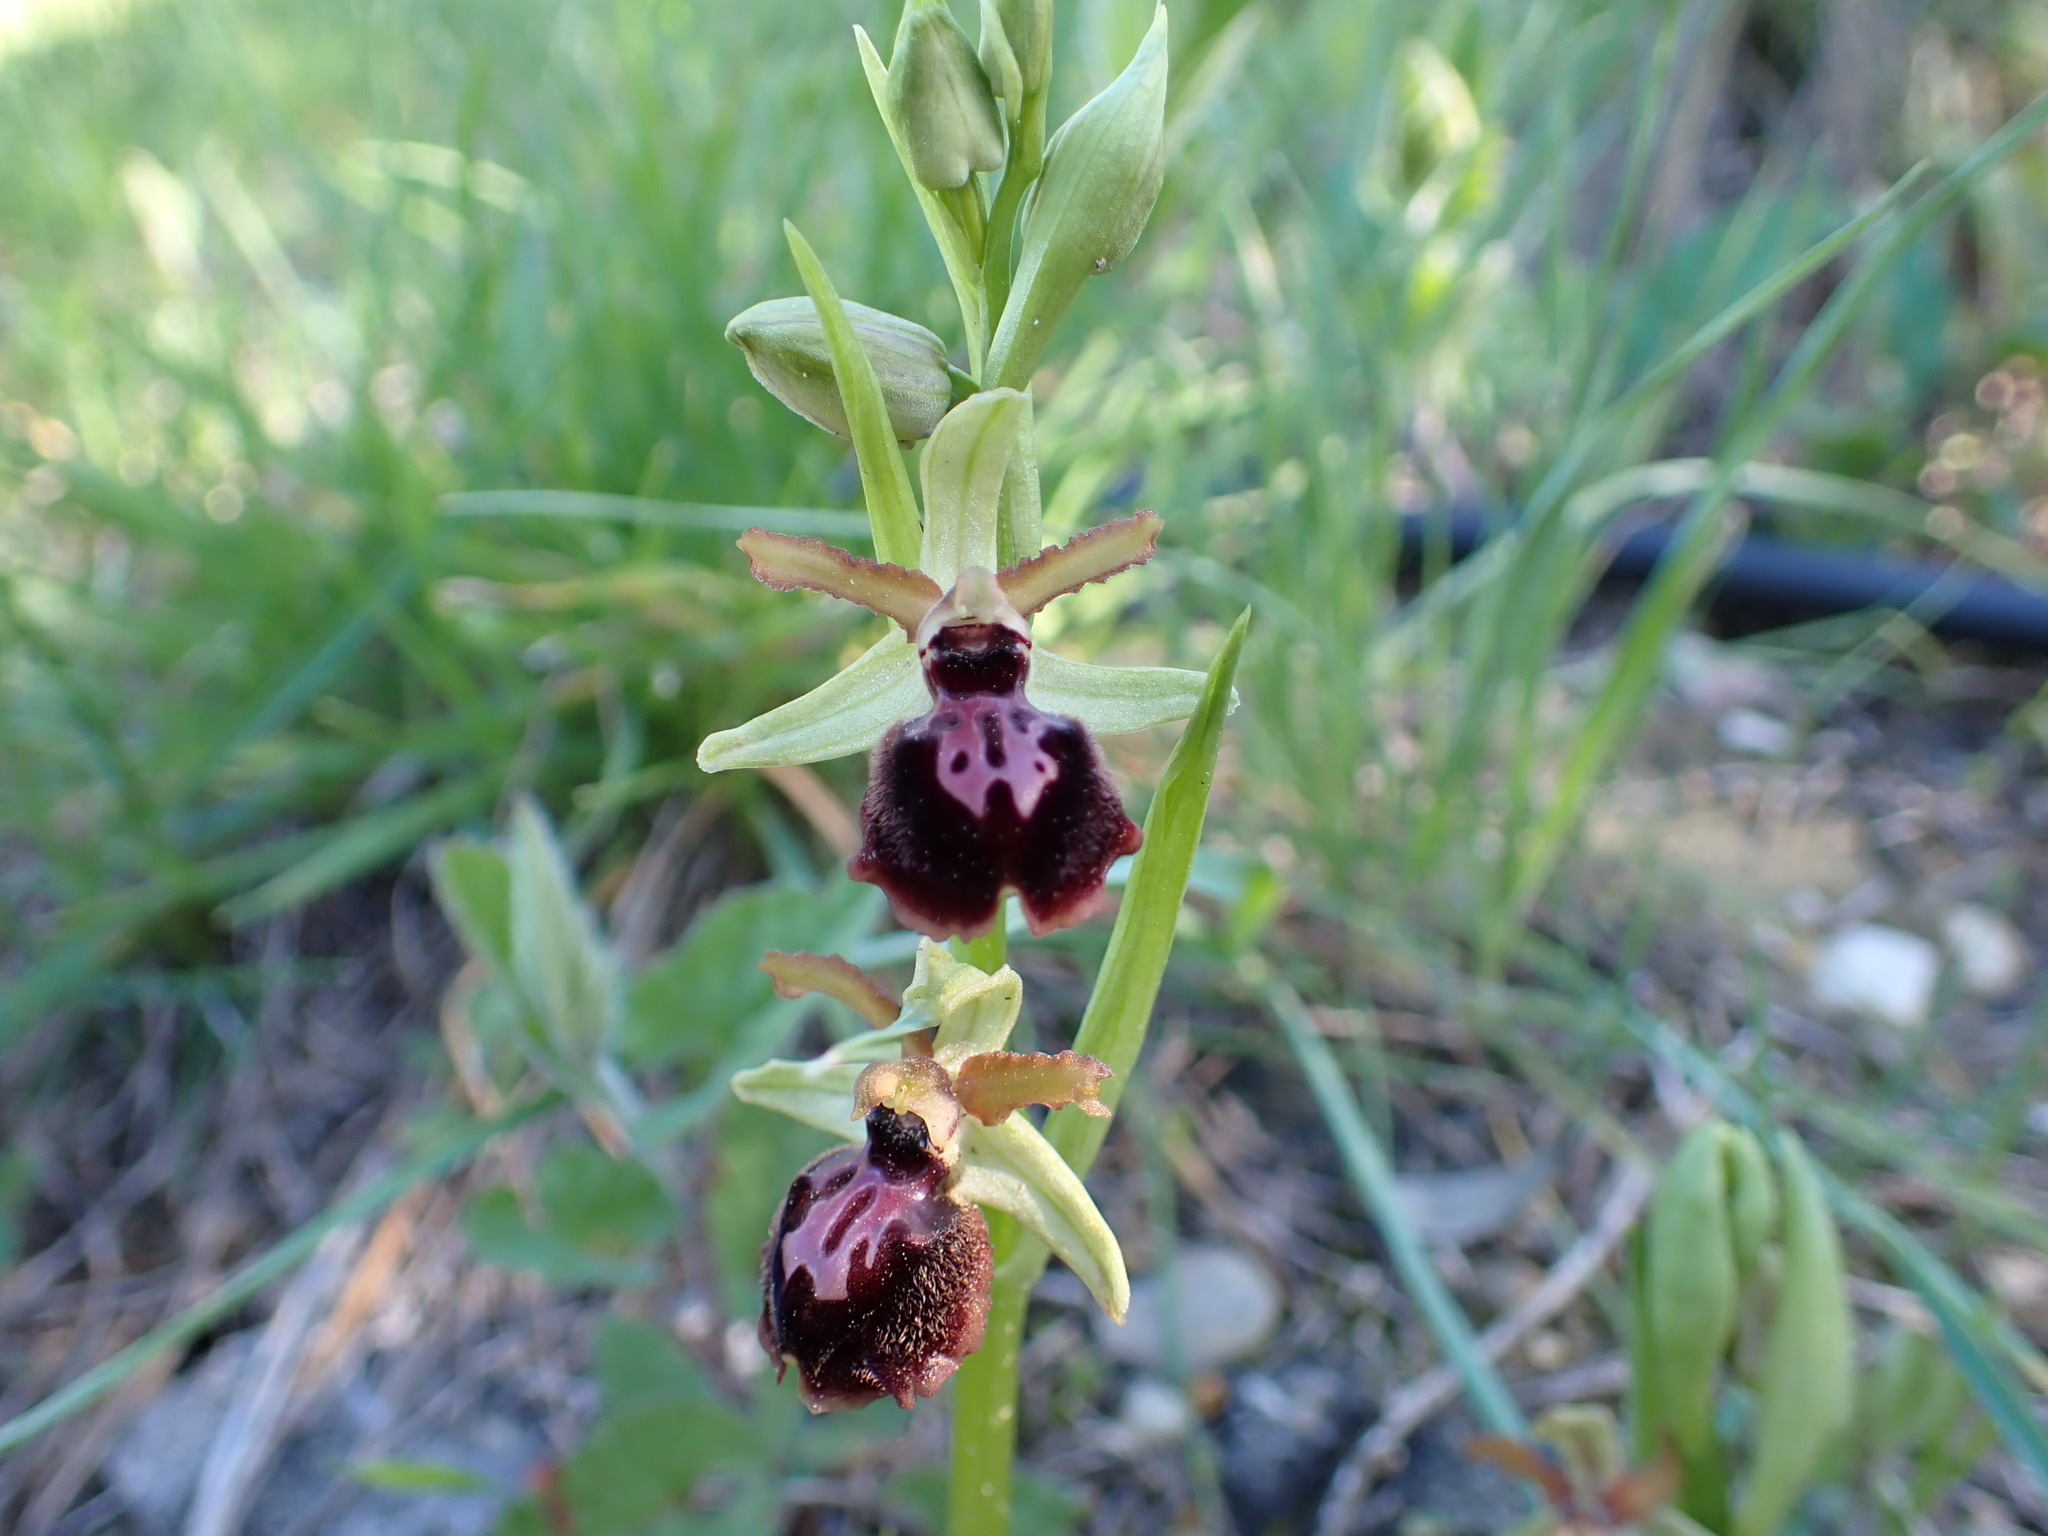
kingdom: Plantae
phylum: Tracheophyta
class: Liliopsida
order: Asparagales
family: Orchidaceae
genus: Ophrys
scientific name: Ophrys sphegodes
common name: Early spider-orchid
